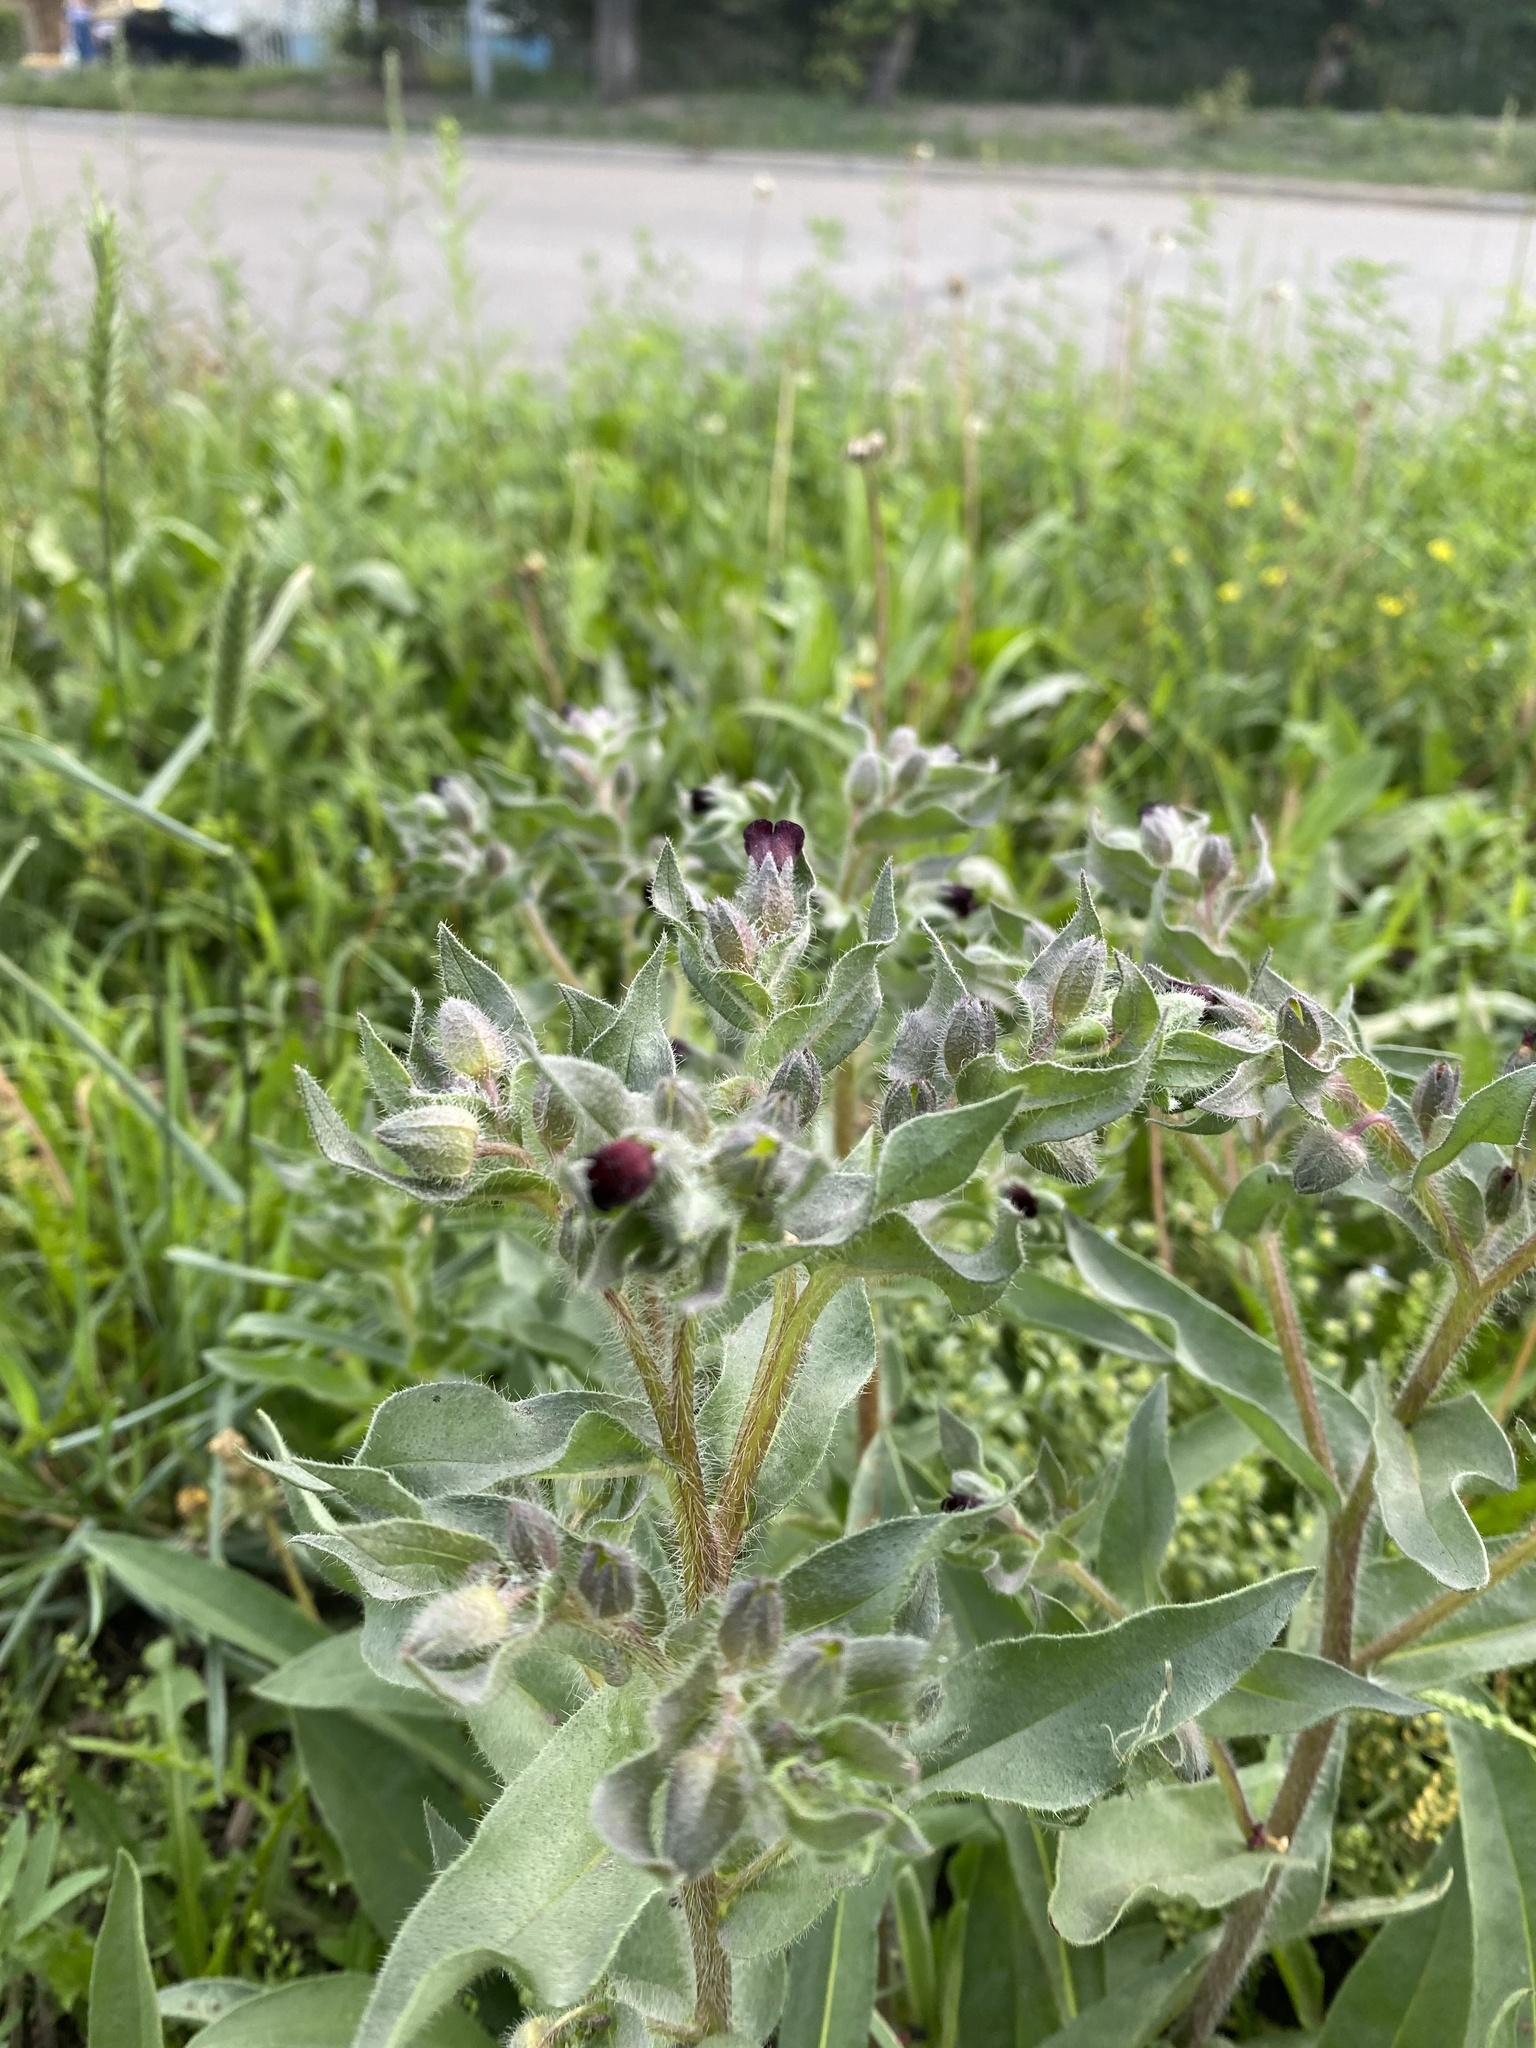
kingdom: Plantae
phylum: Tracheophyta
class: Magnoliopsida
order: Boraginales
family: Boraginaceae
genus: Nonea
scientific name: Nonea pulla
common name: Brown nonea
